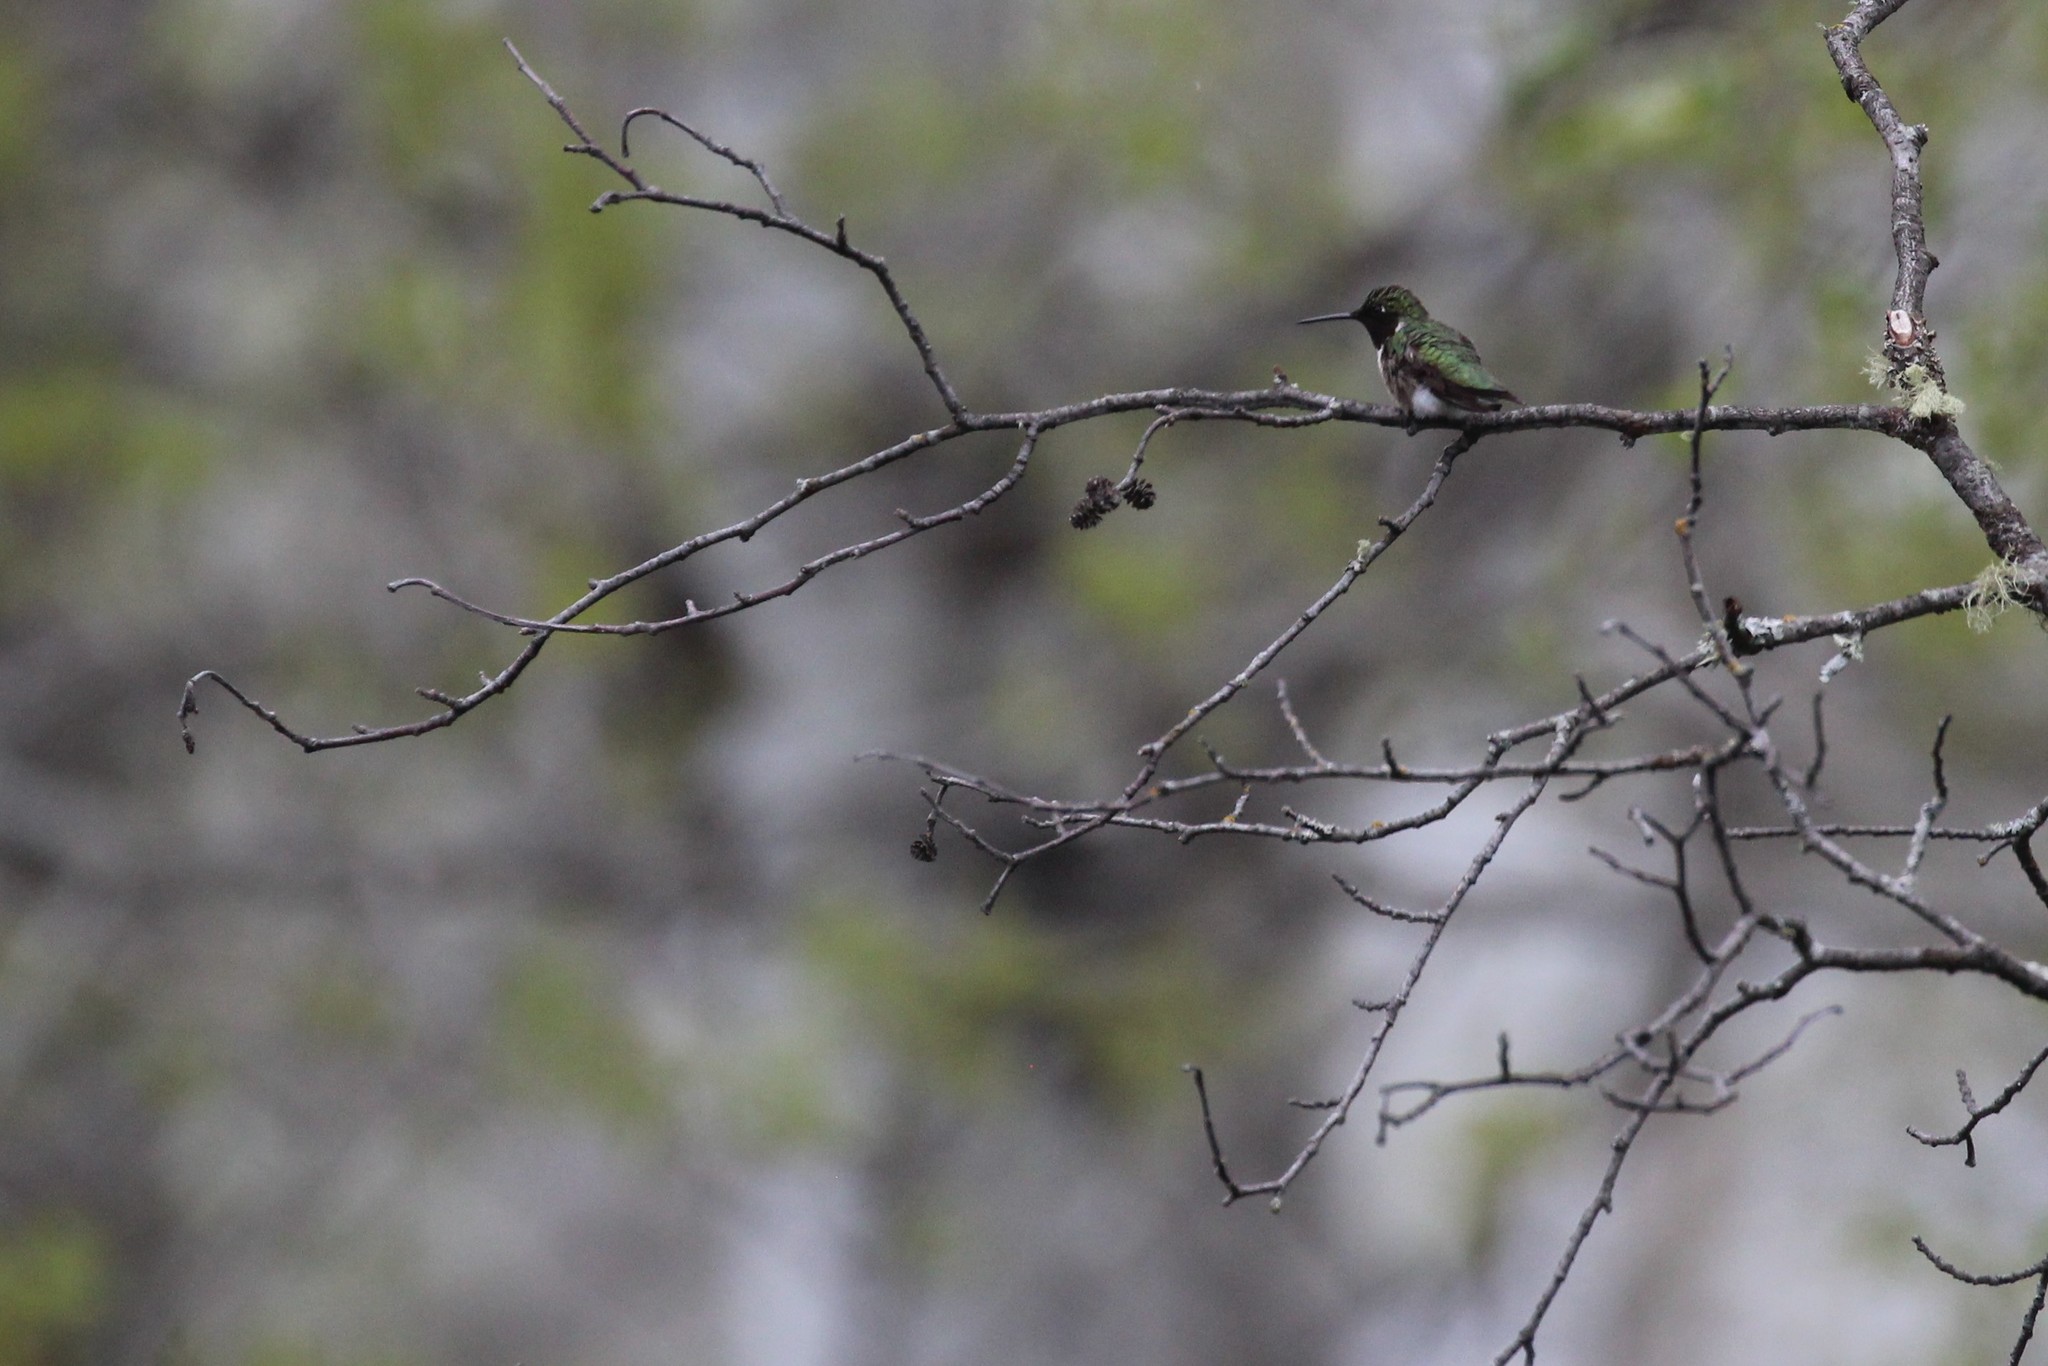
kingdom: Animalia
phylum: Chordata
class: Aves
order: Apodiformes
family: Trochilidae
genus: Archilochus
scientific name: Archilochus colubris
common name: Ruby-throated hummingbird
